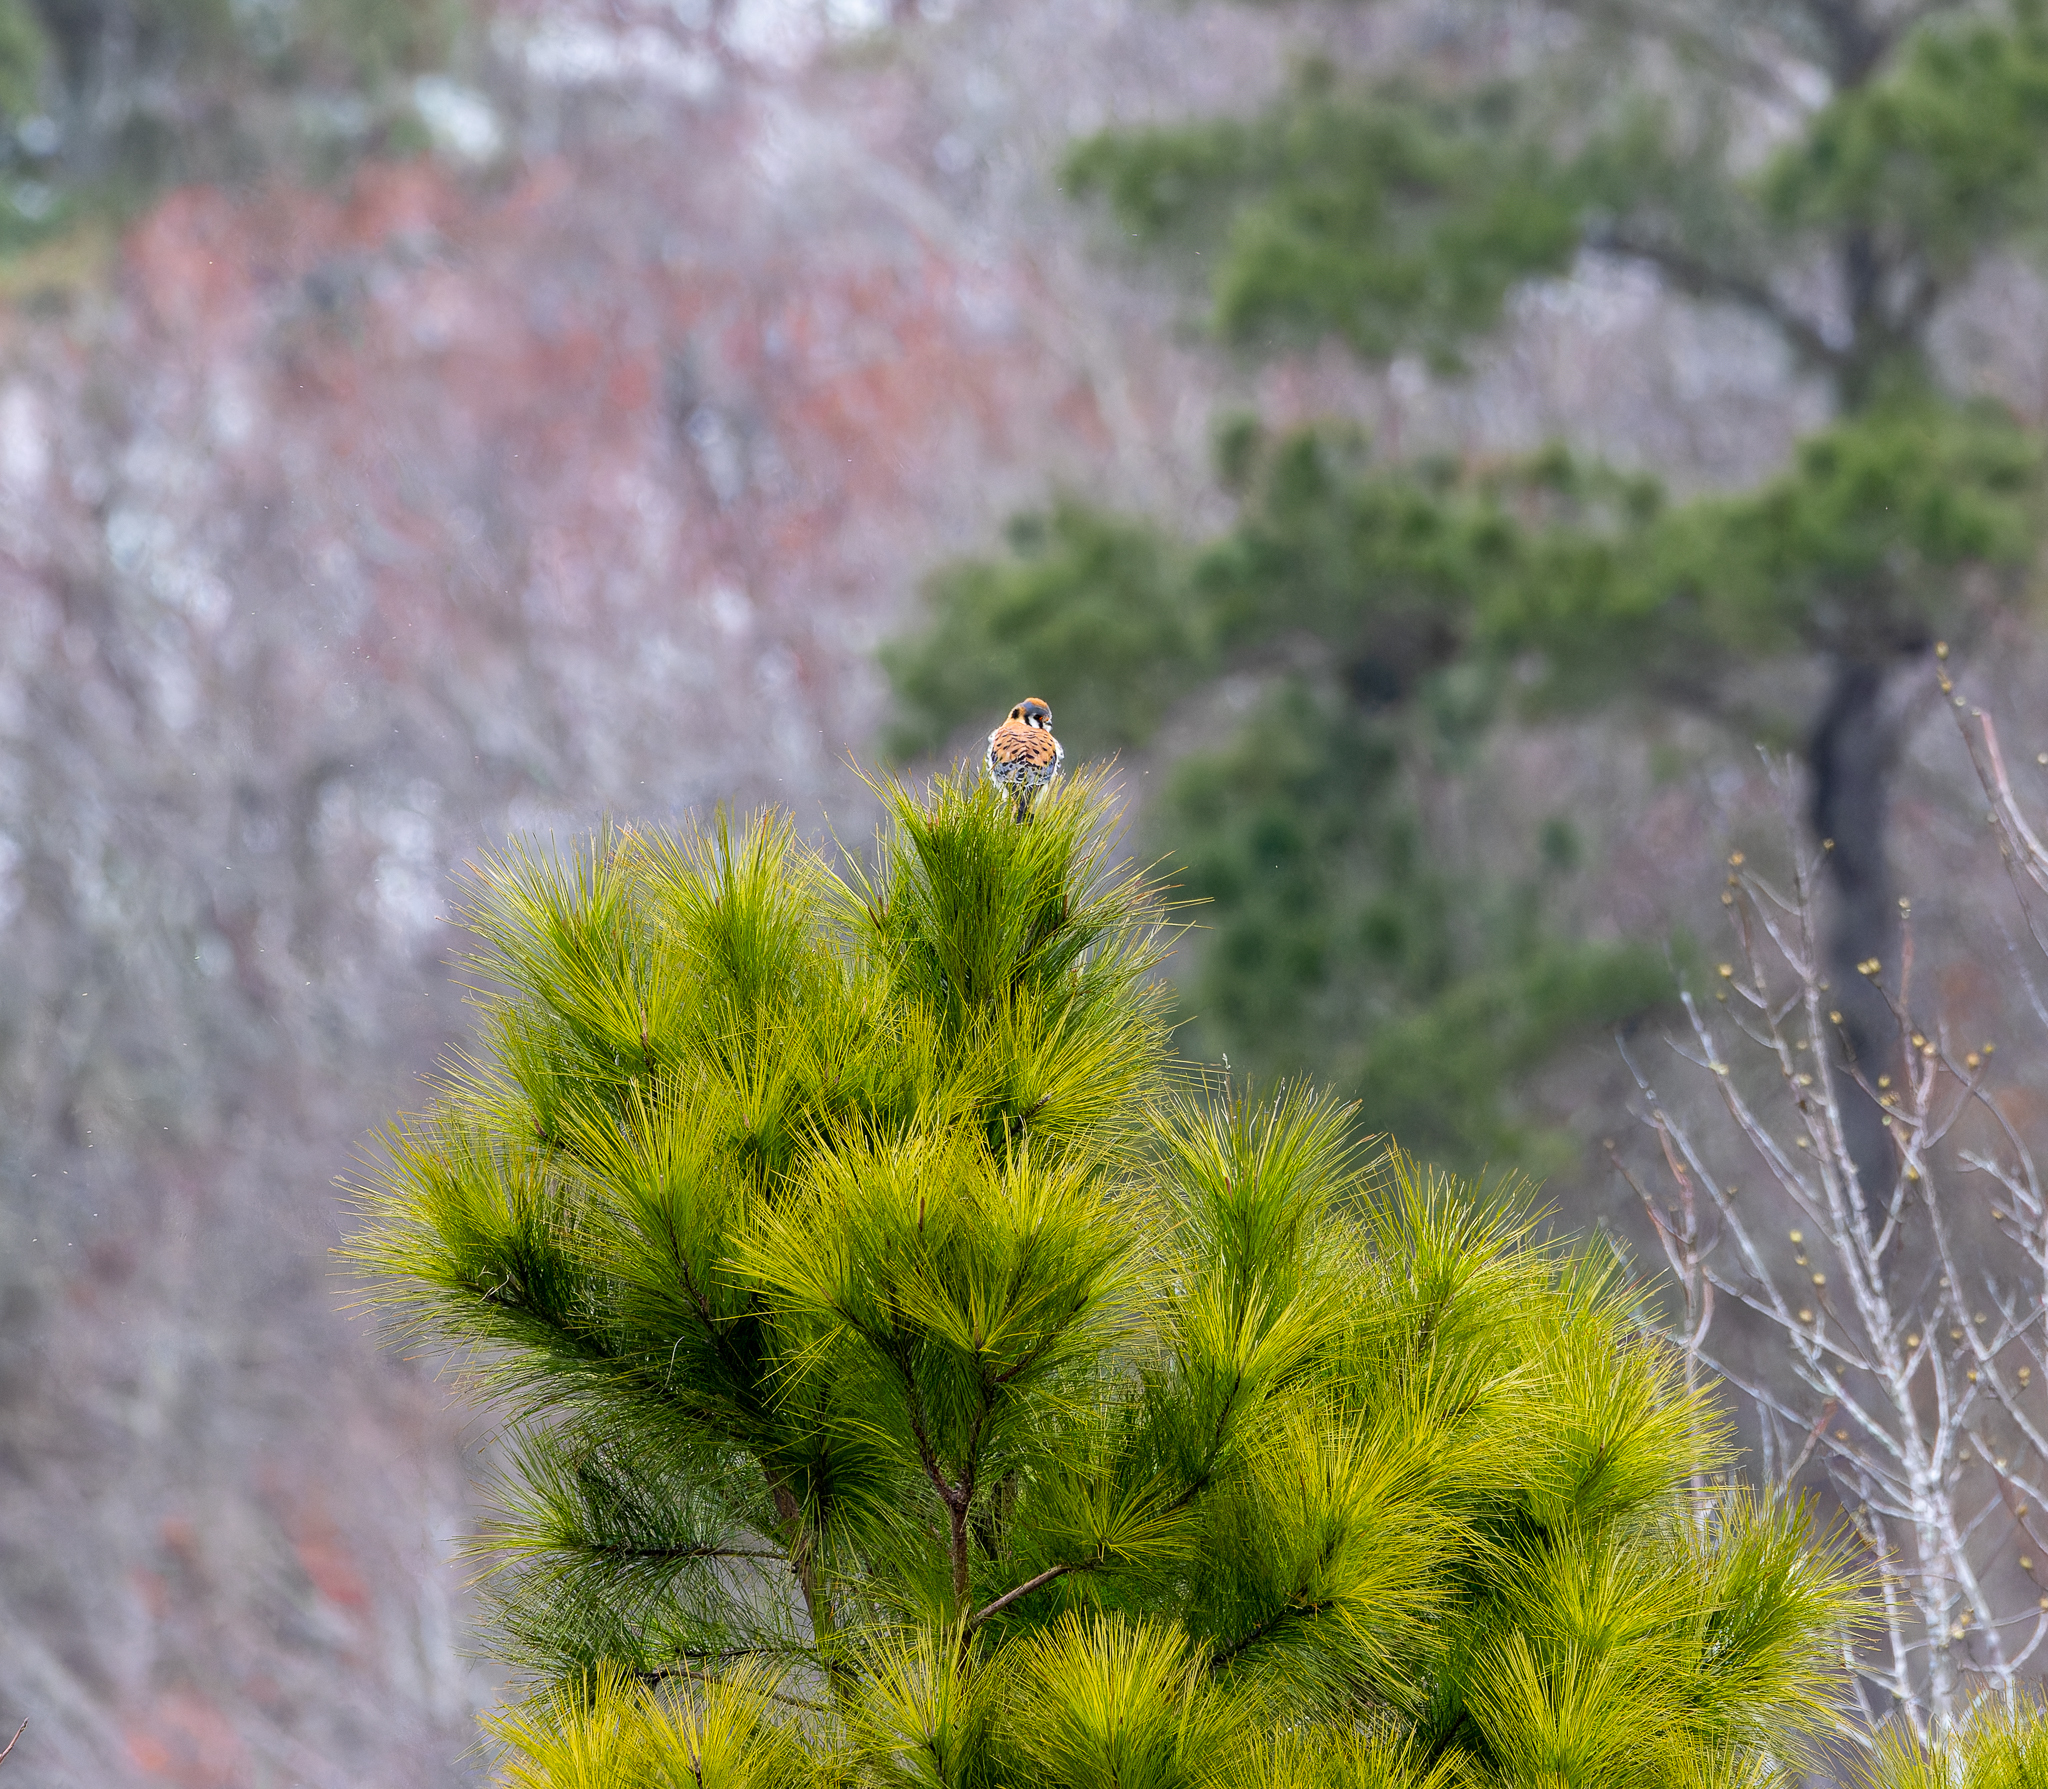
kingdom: Animalia
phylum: Chordata
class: Aves
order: Falconiformes
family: Falconidae
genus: Falco
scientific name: Falco sparverius
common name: American kestrel
